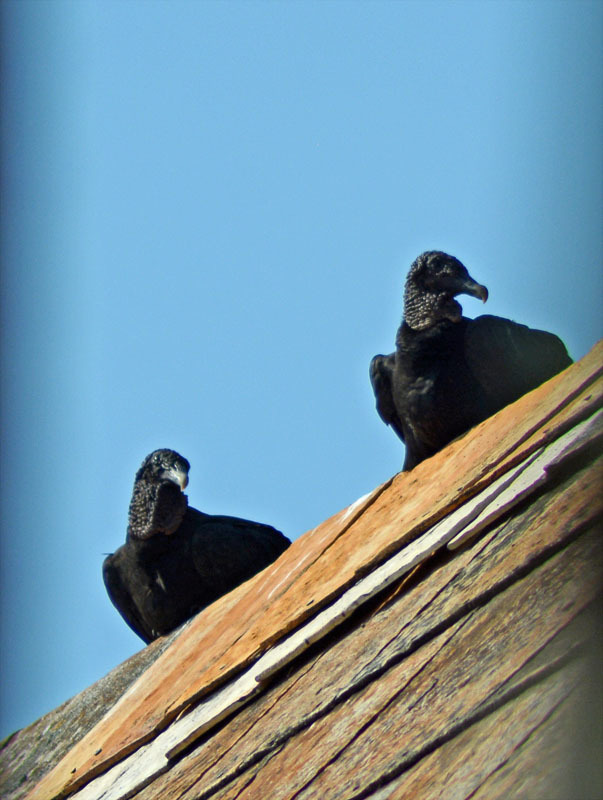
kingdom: Animalia
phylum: Chordata
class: Aves
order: Accipitriformes
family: Cathartidae
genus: Coragyps
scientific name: Coragyps atratus
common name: Black vulture
